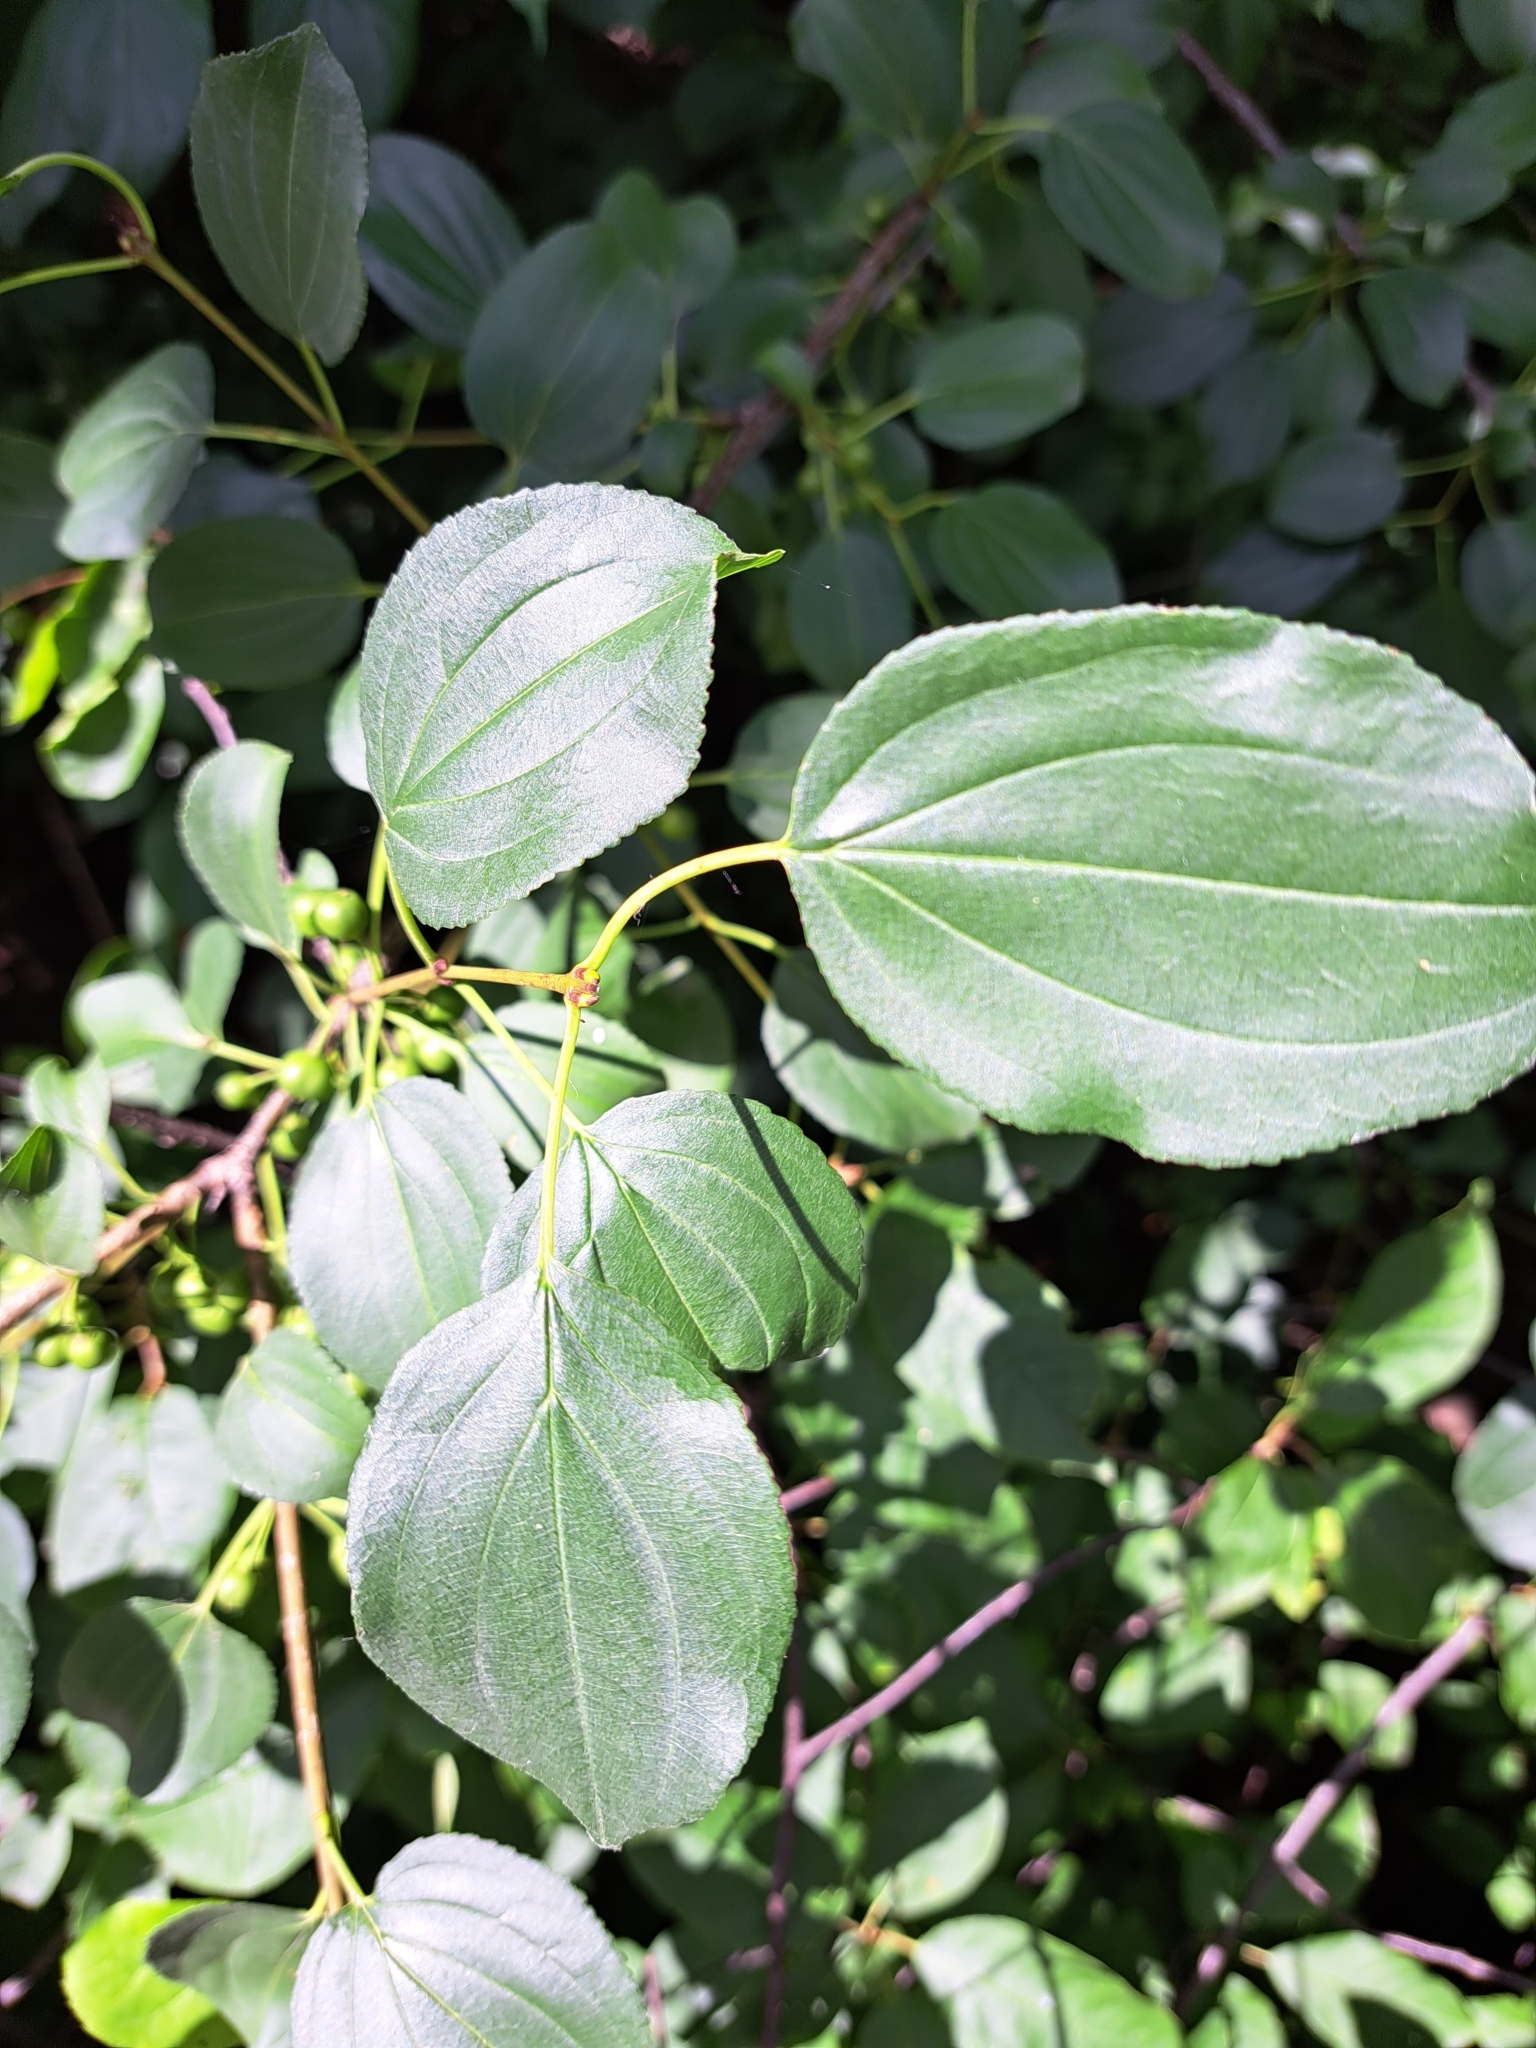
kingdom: Plantae
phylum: Tracheophyta
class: Magnoliopsida
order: Rosales
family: Rhamnaceae
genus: Rhamnus
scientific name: Rhamnus cathartica
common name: Common buckthorn
